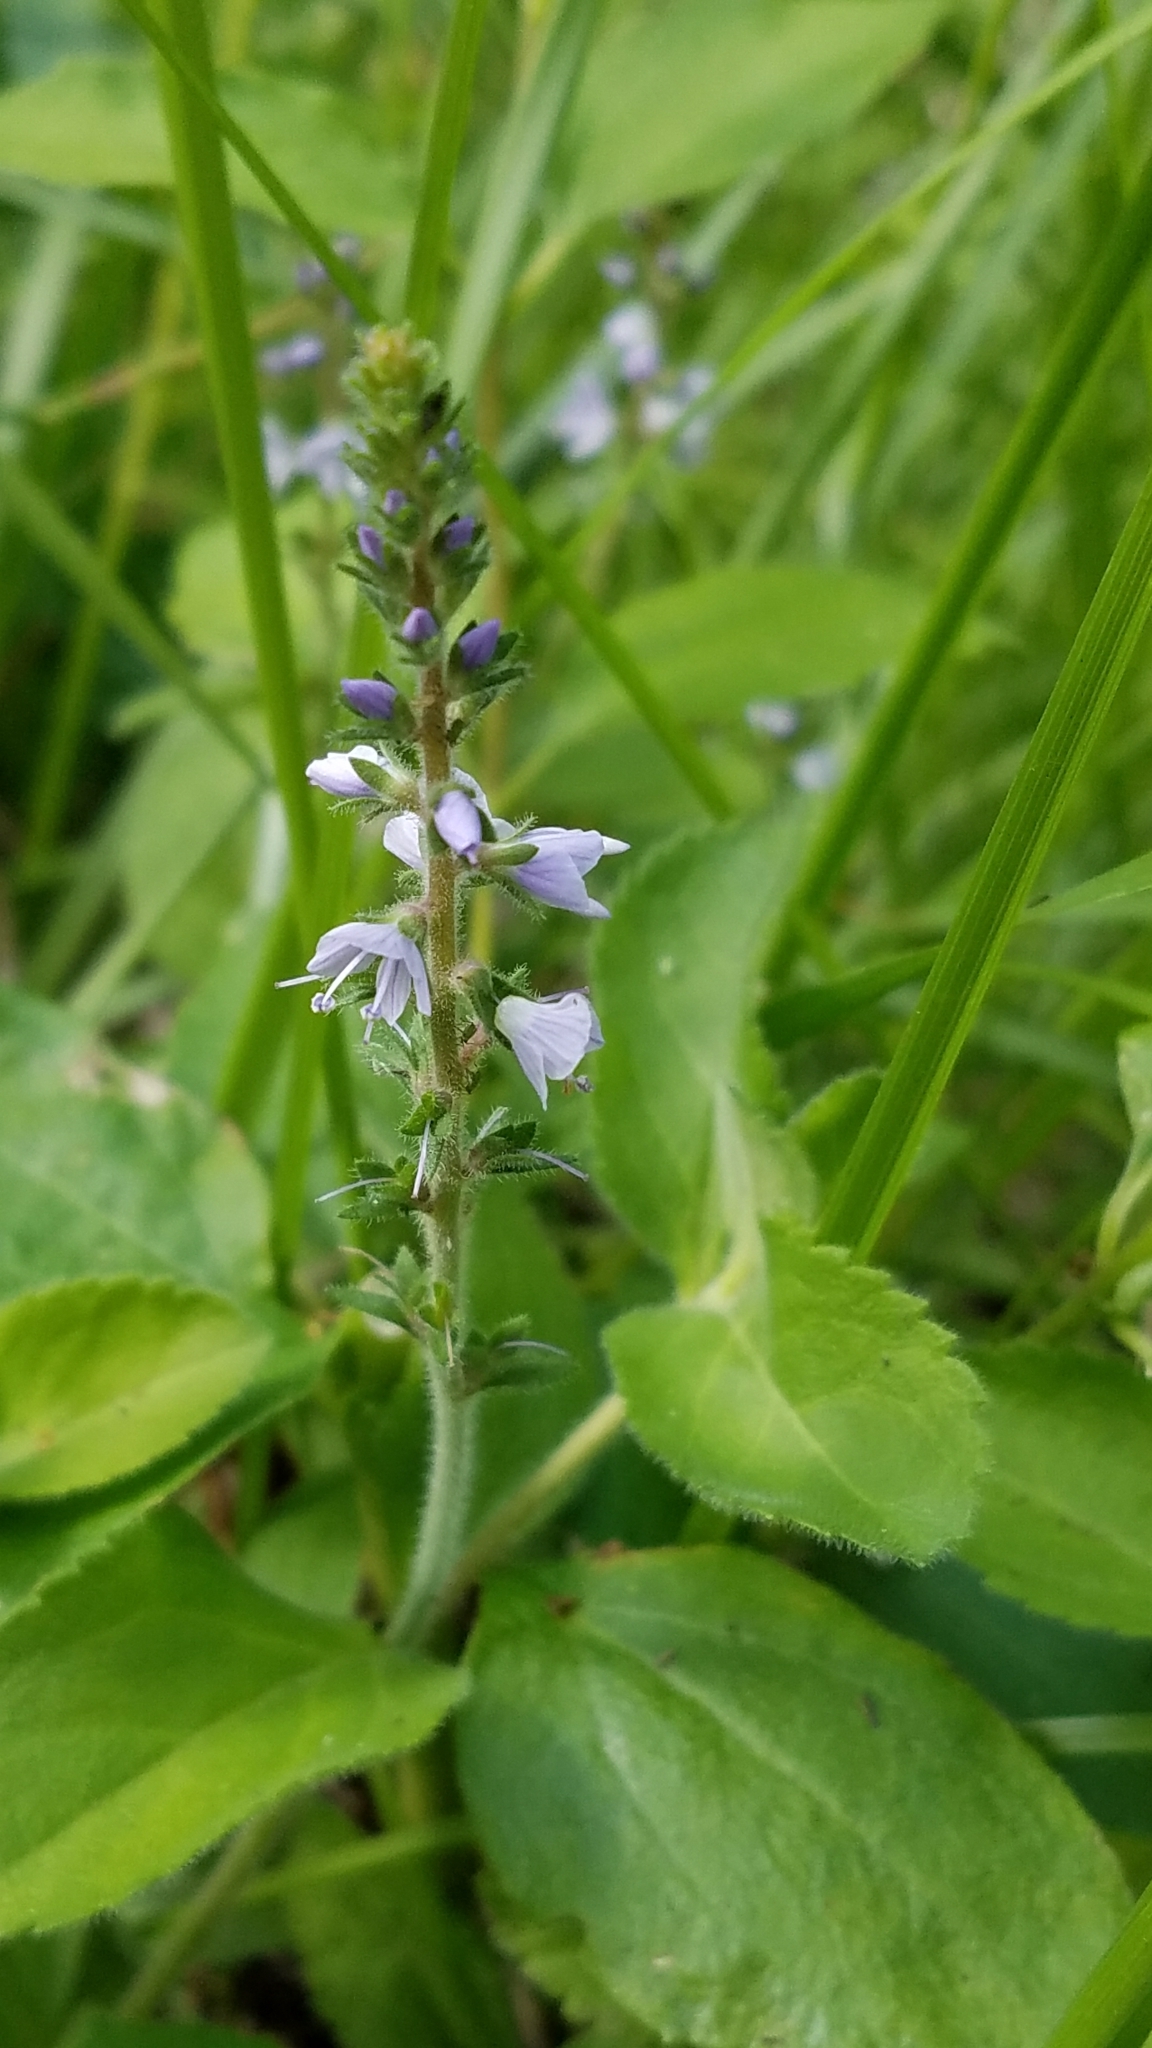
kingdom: Plantae
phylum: Tracheophyta
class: Magnoliopsida
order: Lamiales
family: Plantaginaceae
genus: Veronica
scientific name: Veronica officinalis
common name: Common speedwell
